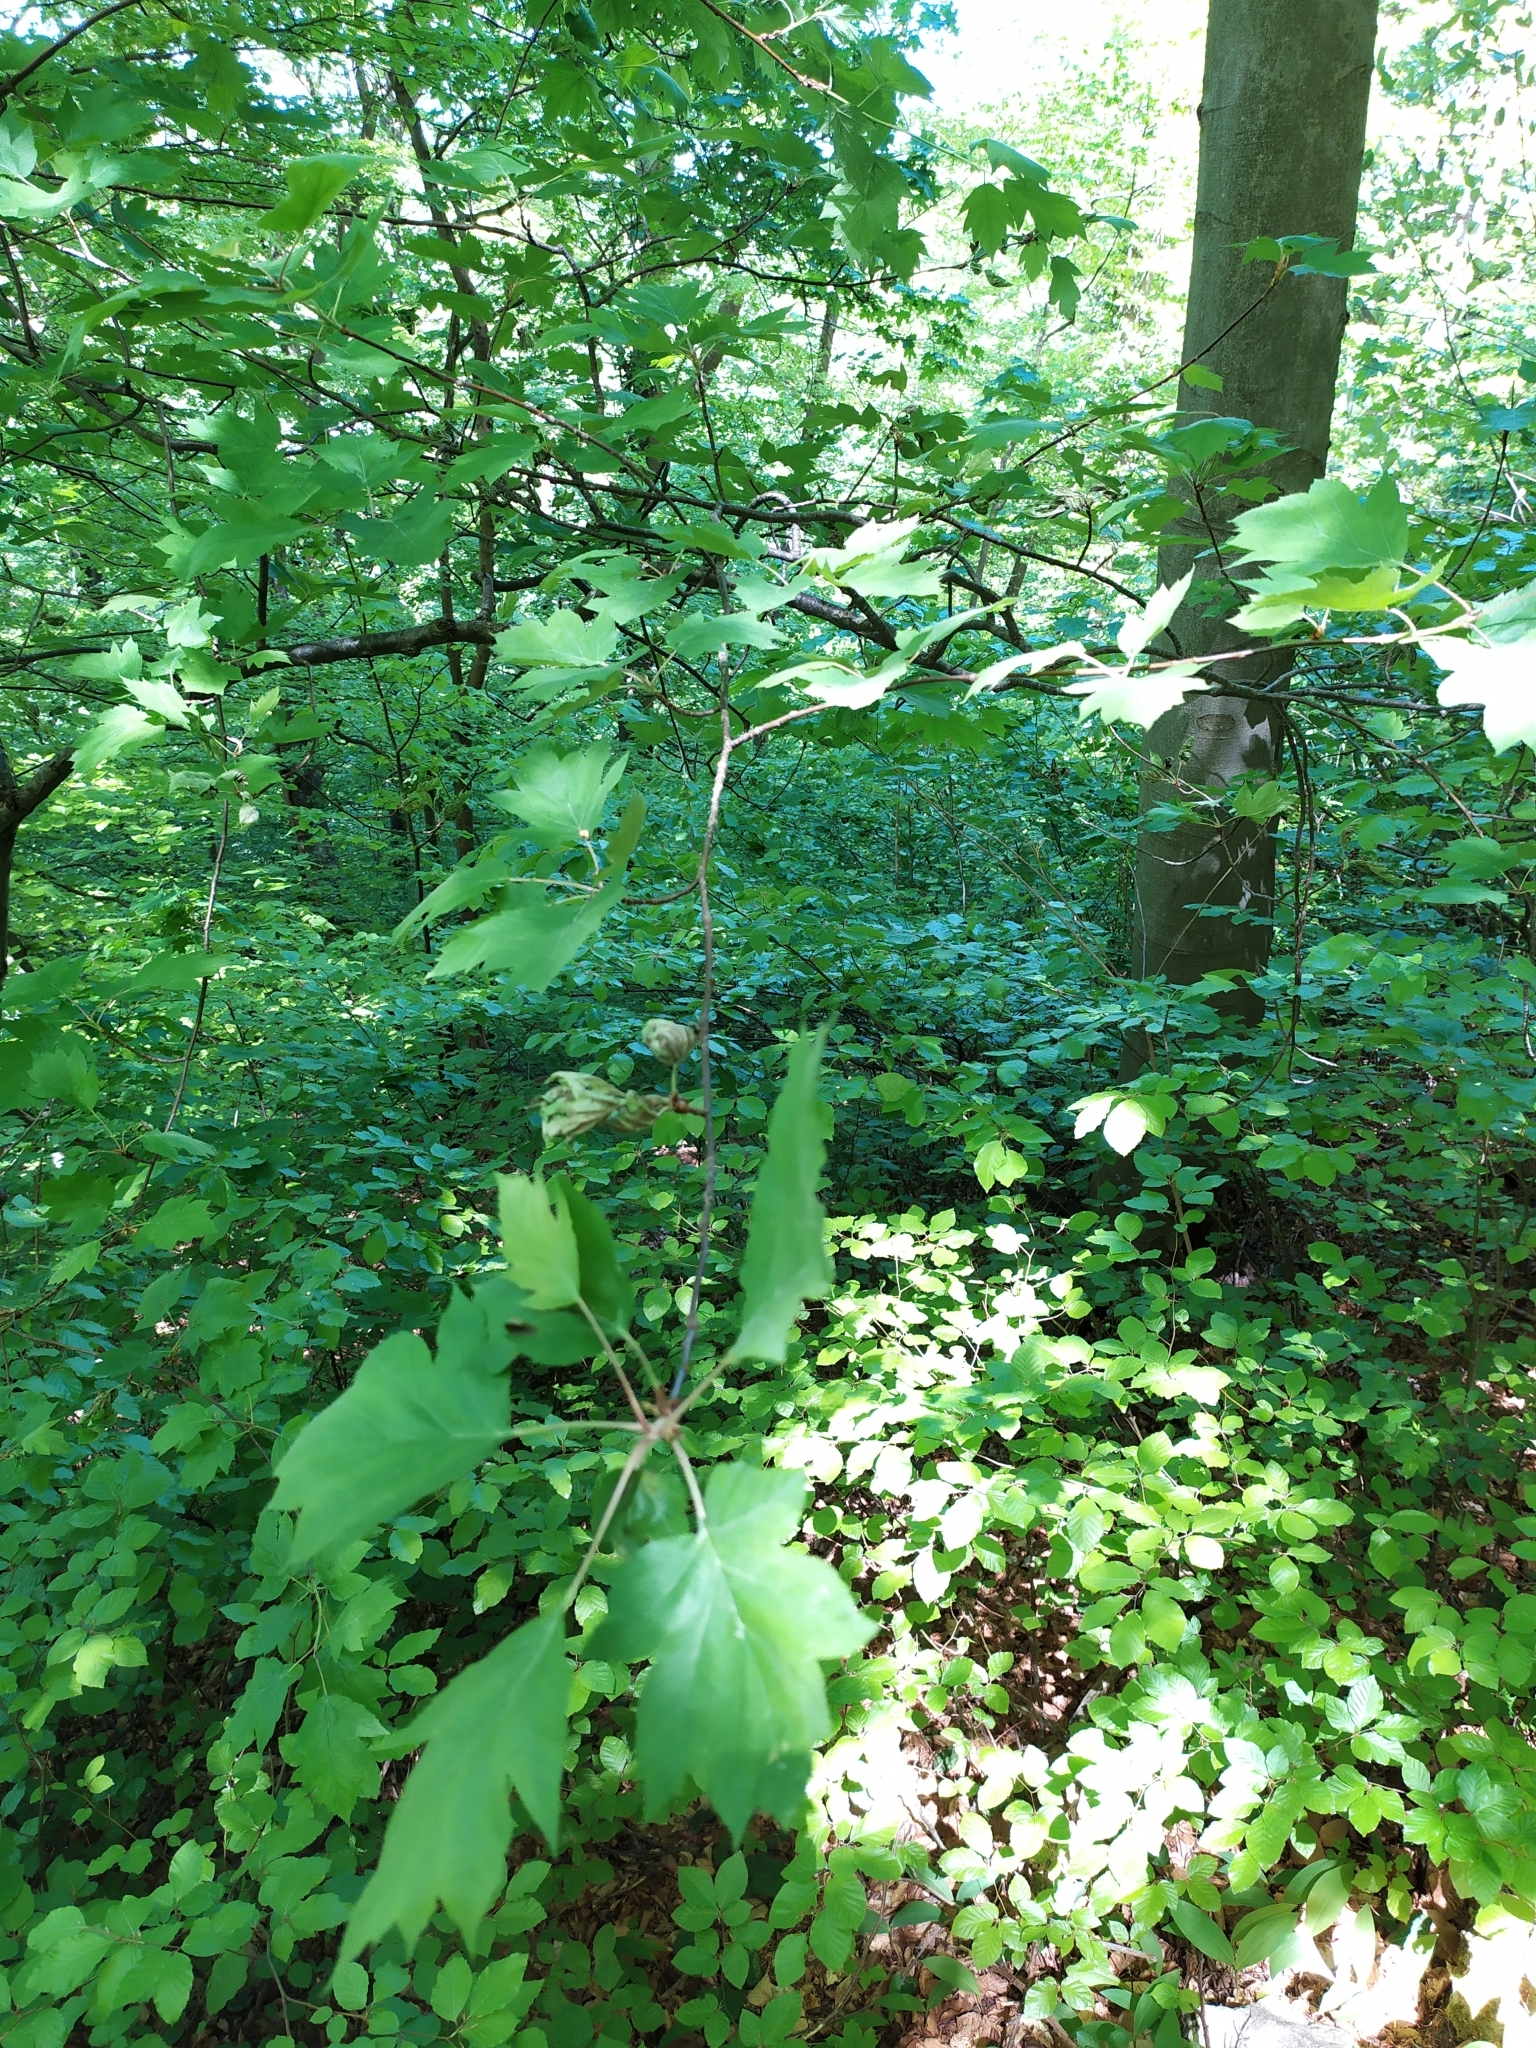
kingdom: Plantae
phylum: Tracheophyta
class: Magnoliopsida
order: Rosales
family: Rosaceae
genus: Torminalis
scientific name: Torminalis glaberrima
